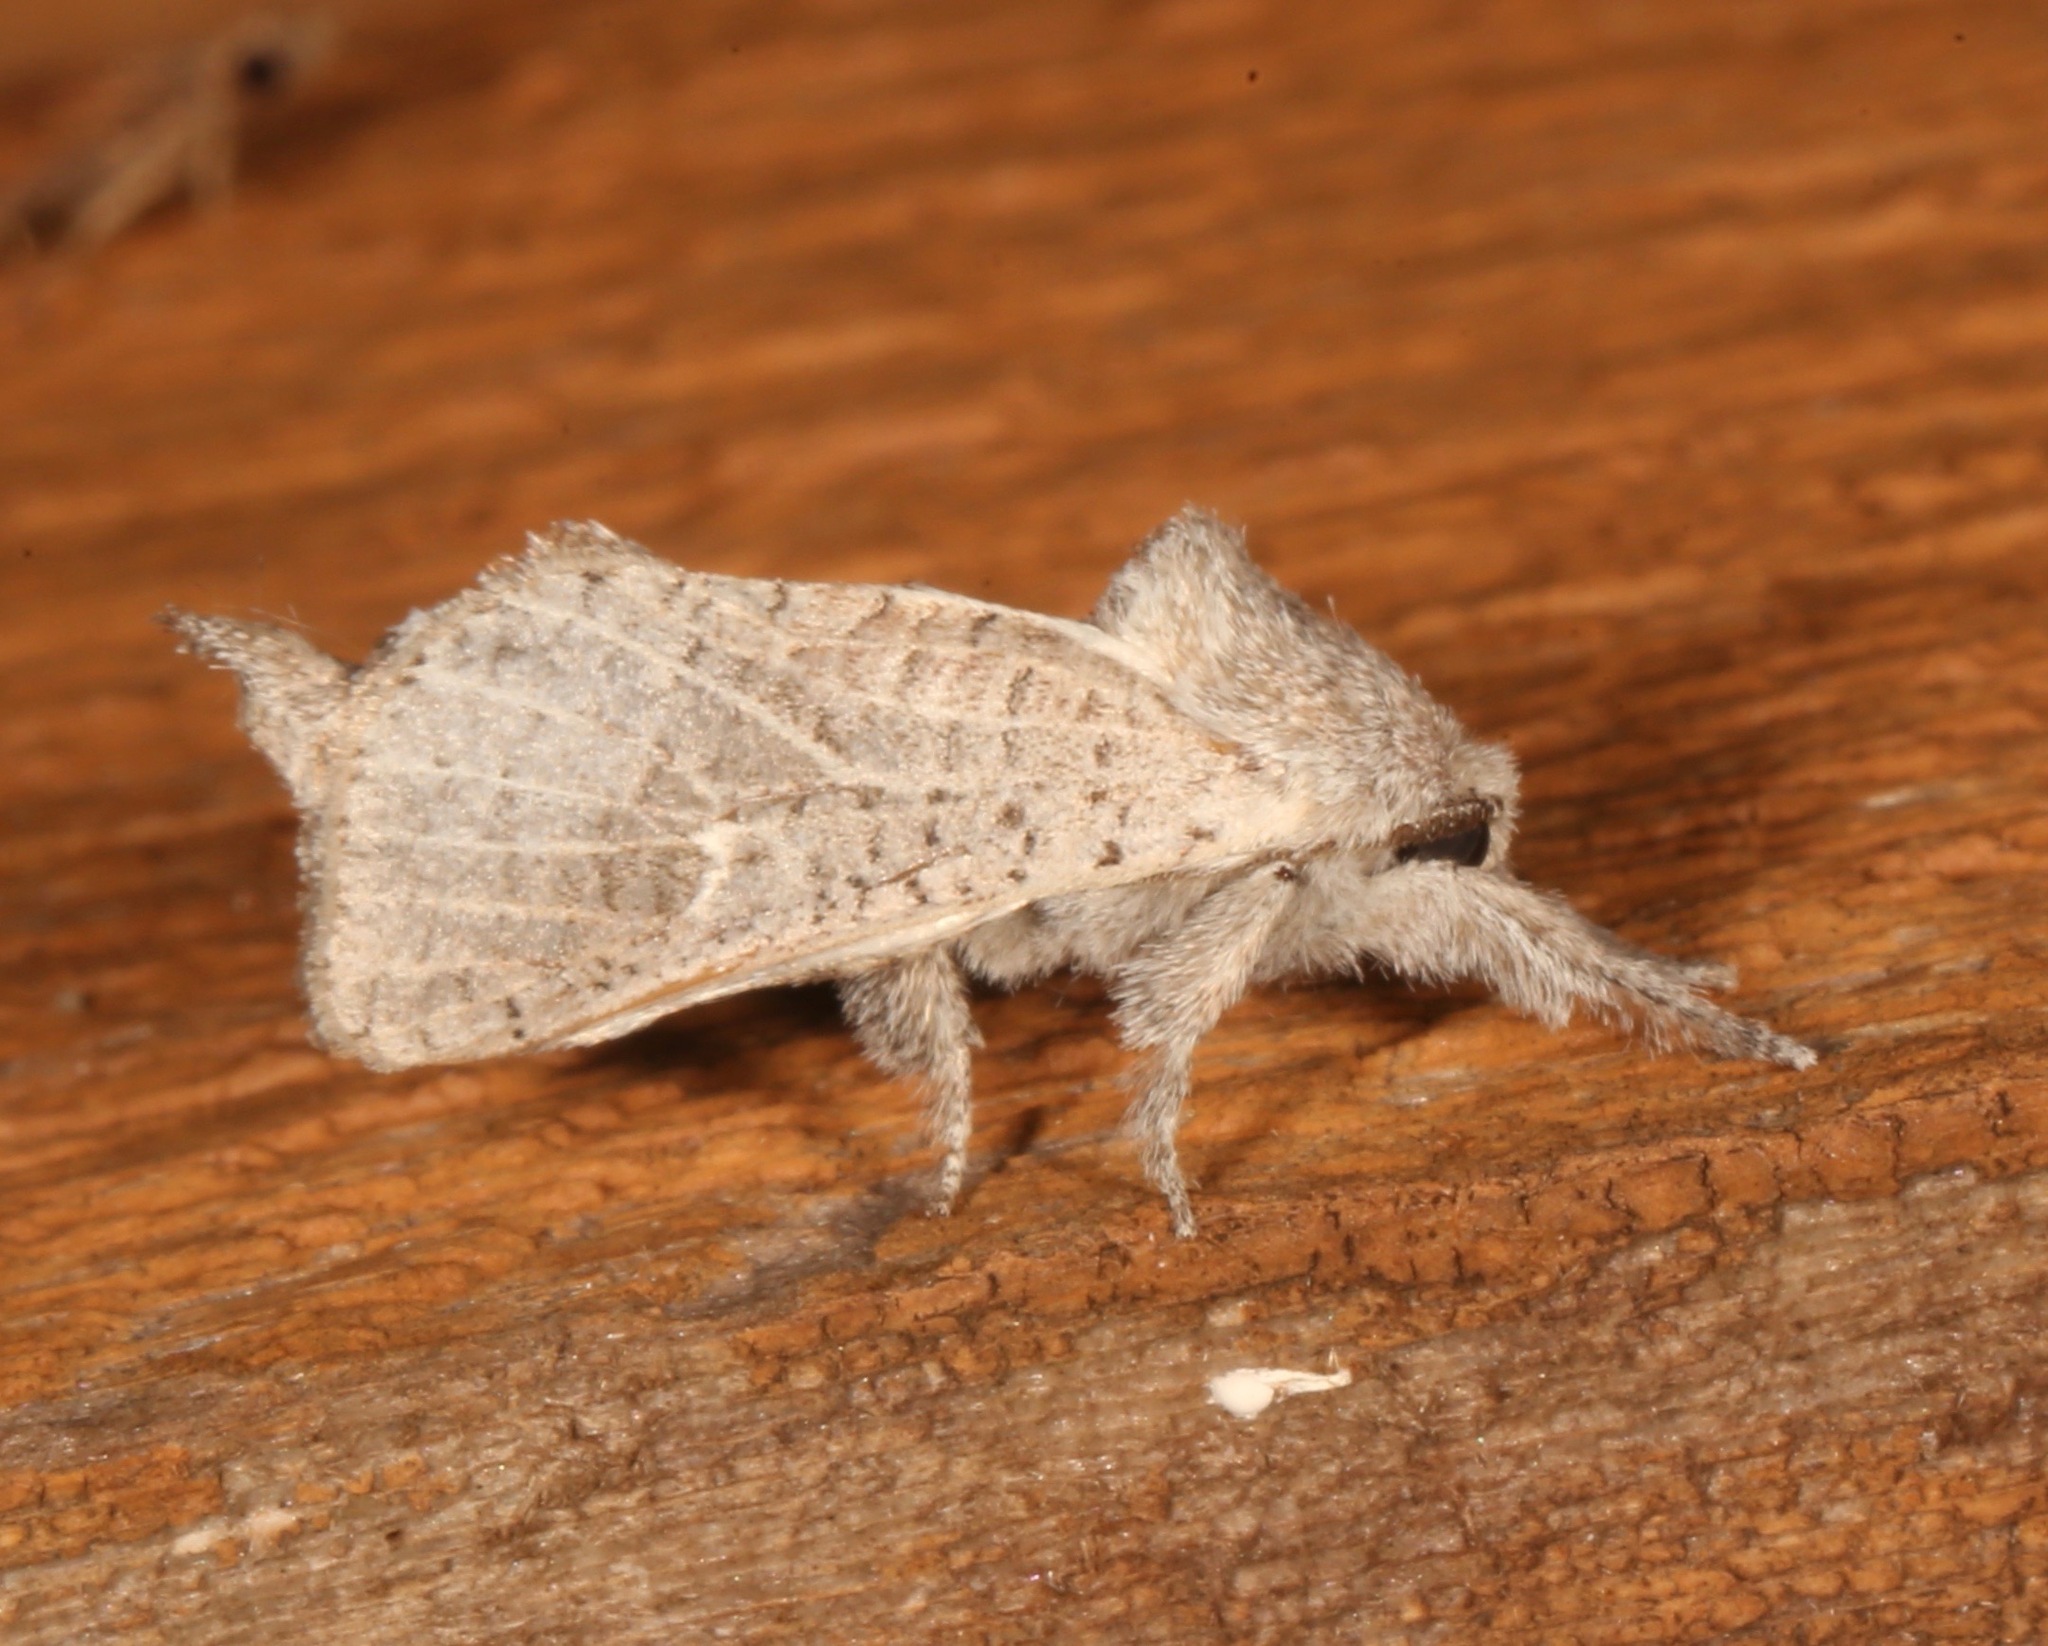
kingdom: Animalia
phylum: Arthropoda
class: Insecta
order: Lepidoptera
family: Cossidae
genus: Givira
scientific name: Givira anna
